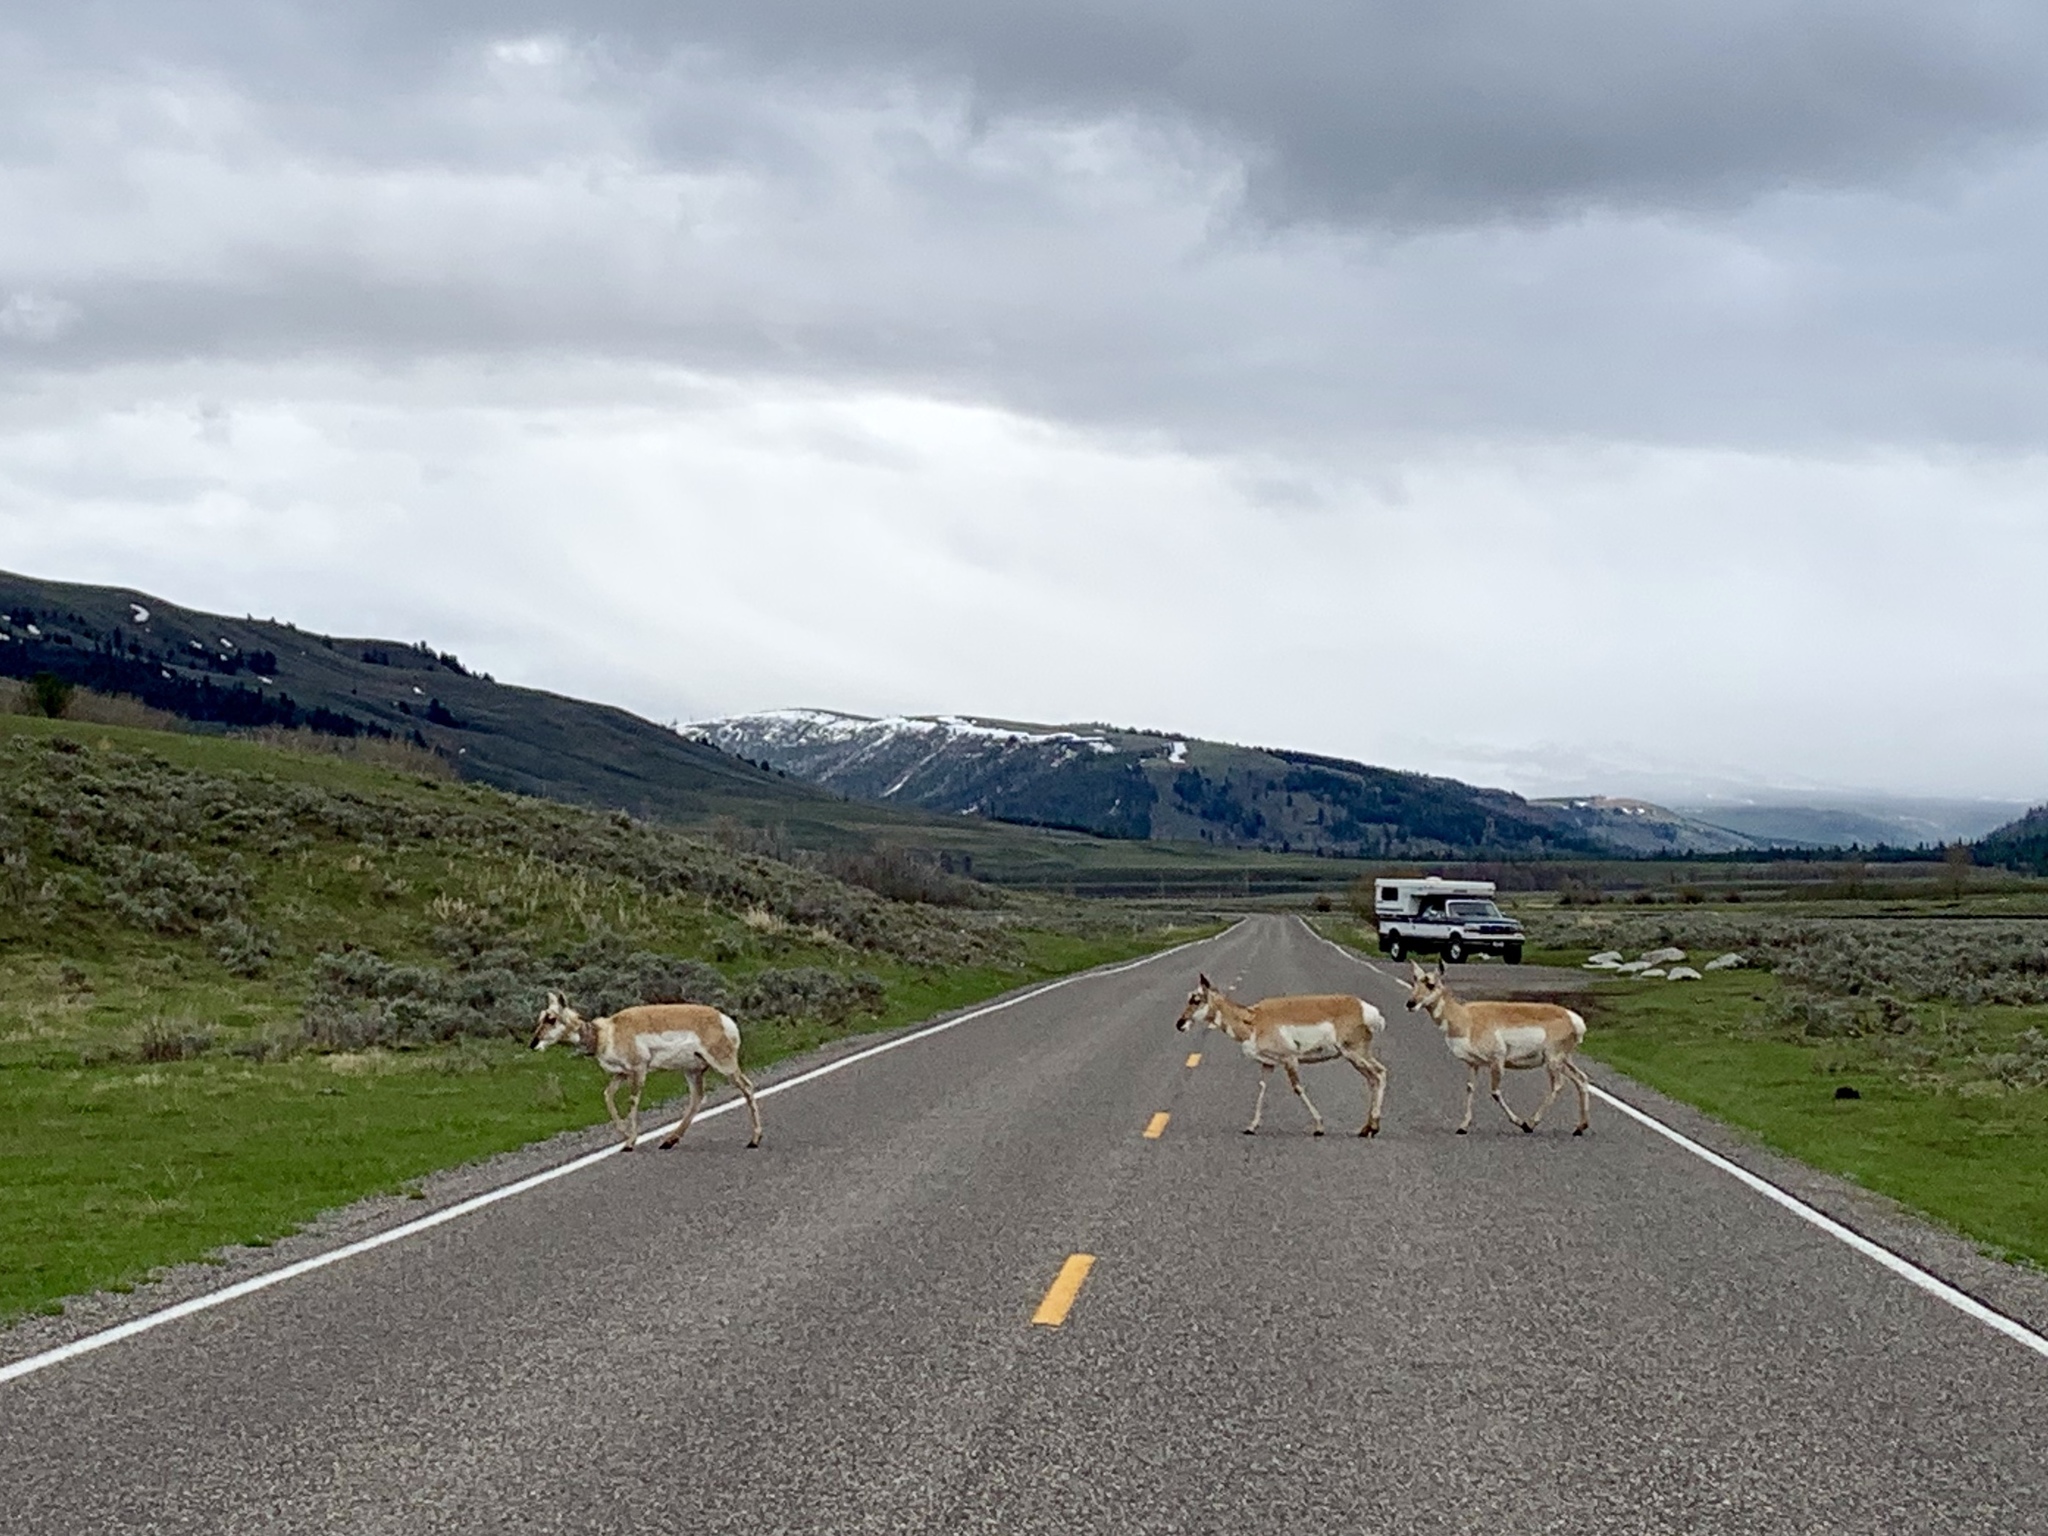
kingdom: Animalia
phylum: Chordata
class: Mammalia
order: Artiodactyla
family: Antilocapridae
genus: Antilocapra
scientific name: Antilocapra americana
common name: Pronghorn
